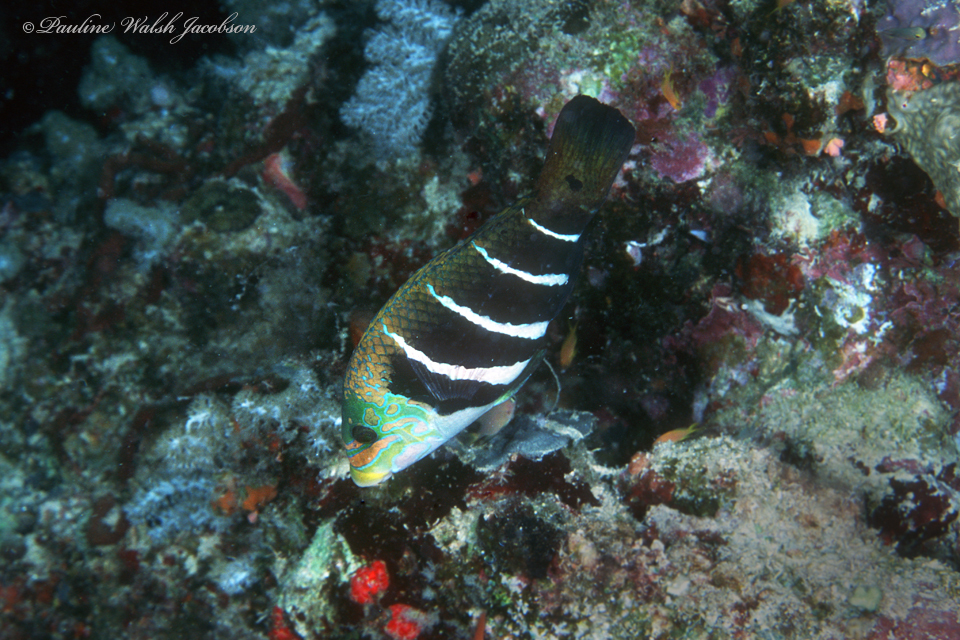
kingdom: Animalia
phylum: Chordata
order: Perciformes
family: Labridae
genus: Hemigymnus
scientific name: Hemigymnus fasciatus
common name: Barred thicklip
